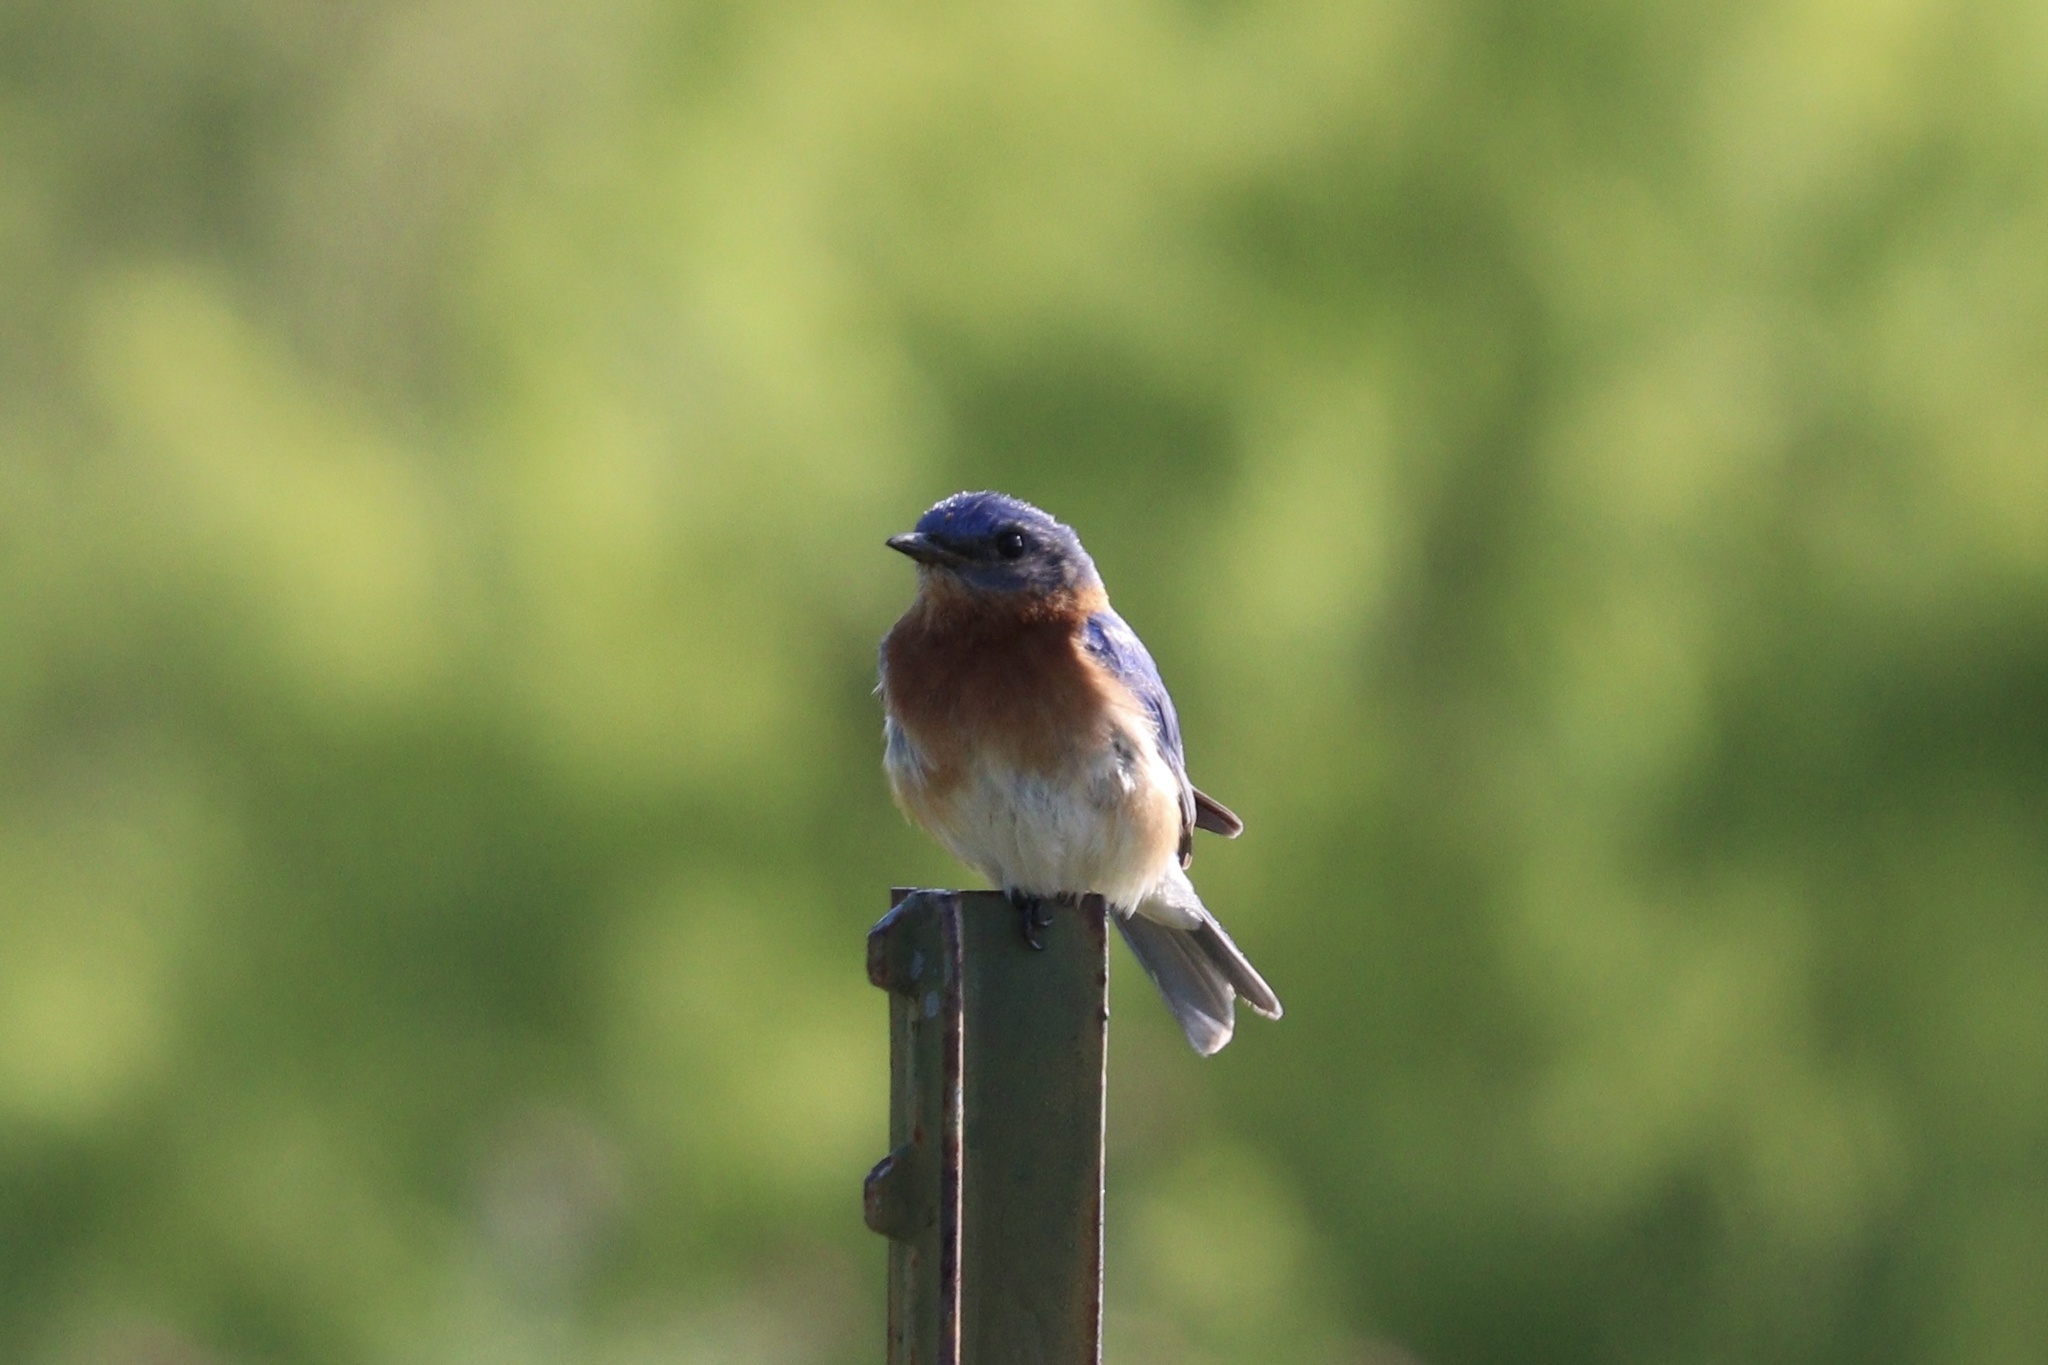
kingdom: Animalia
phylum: Chordata
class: Aves
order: Passeriformes
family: Turdidae
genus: Sialia
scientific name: Sialia sialis
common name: Eastern bluebird
